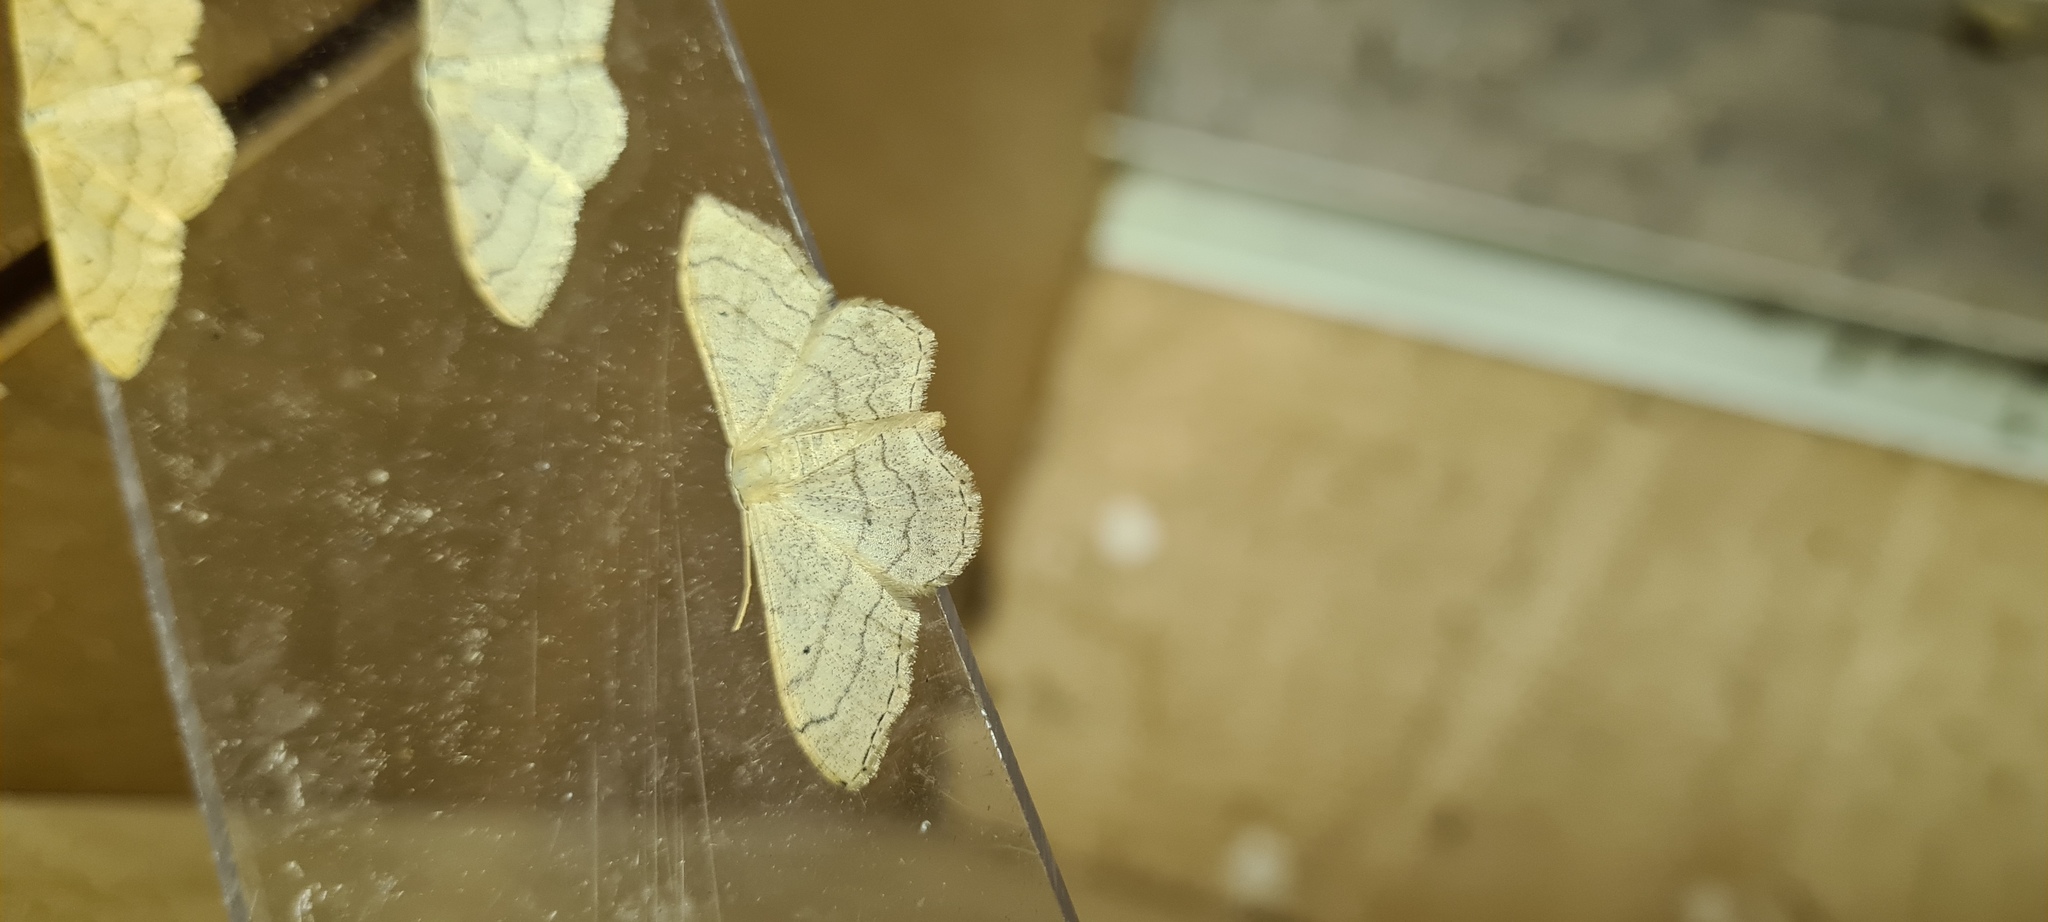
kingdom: Animalia
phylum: Arthropoda
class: Insecta
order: Lepidoptera
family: Geometridae
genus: Idaea
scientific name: Idaea aversata
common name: Riband wave
